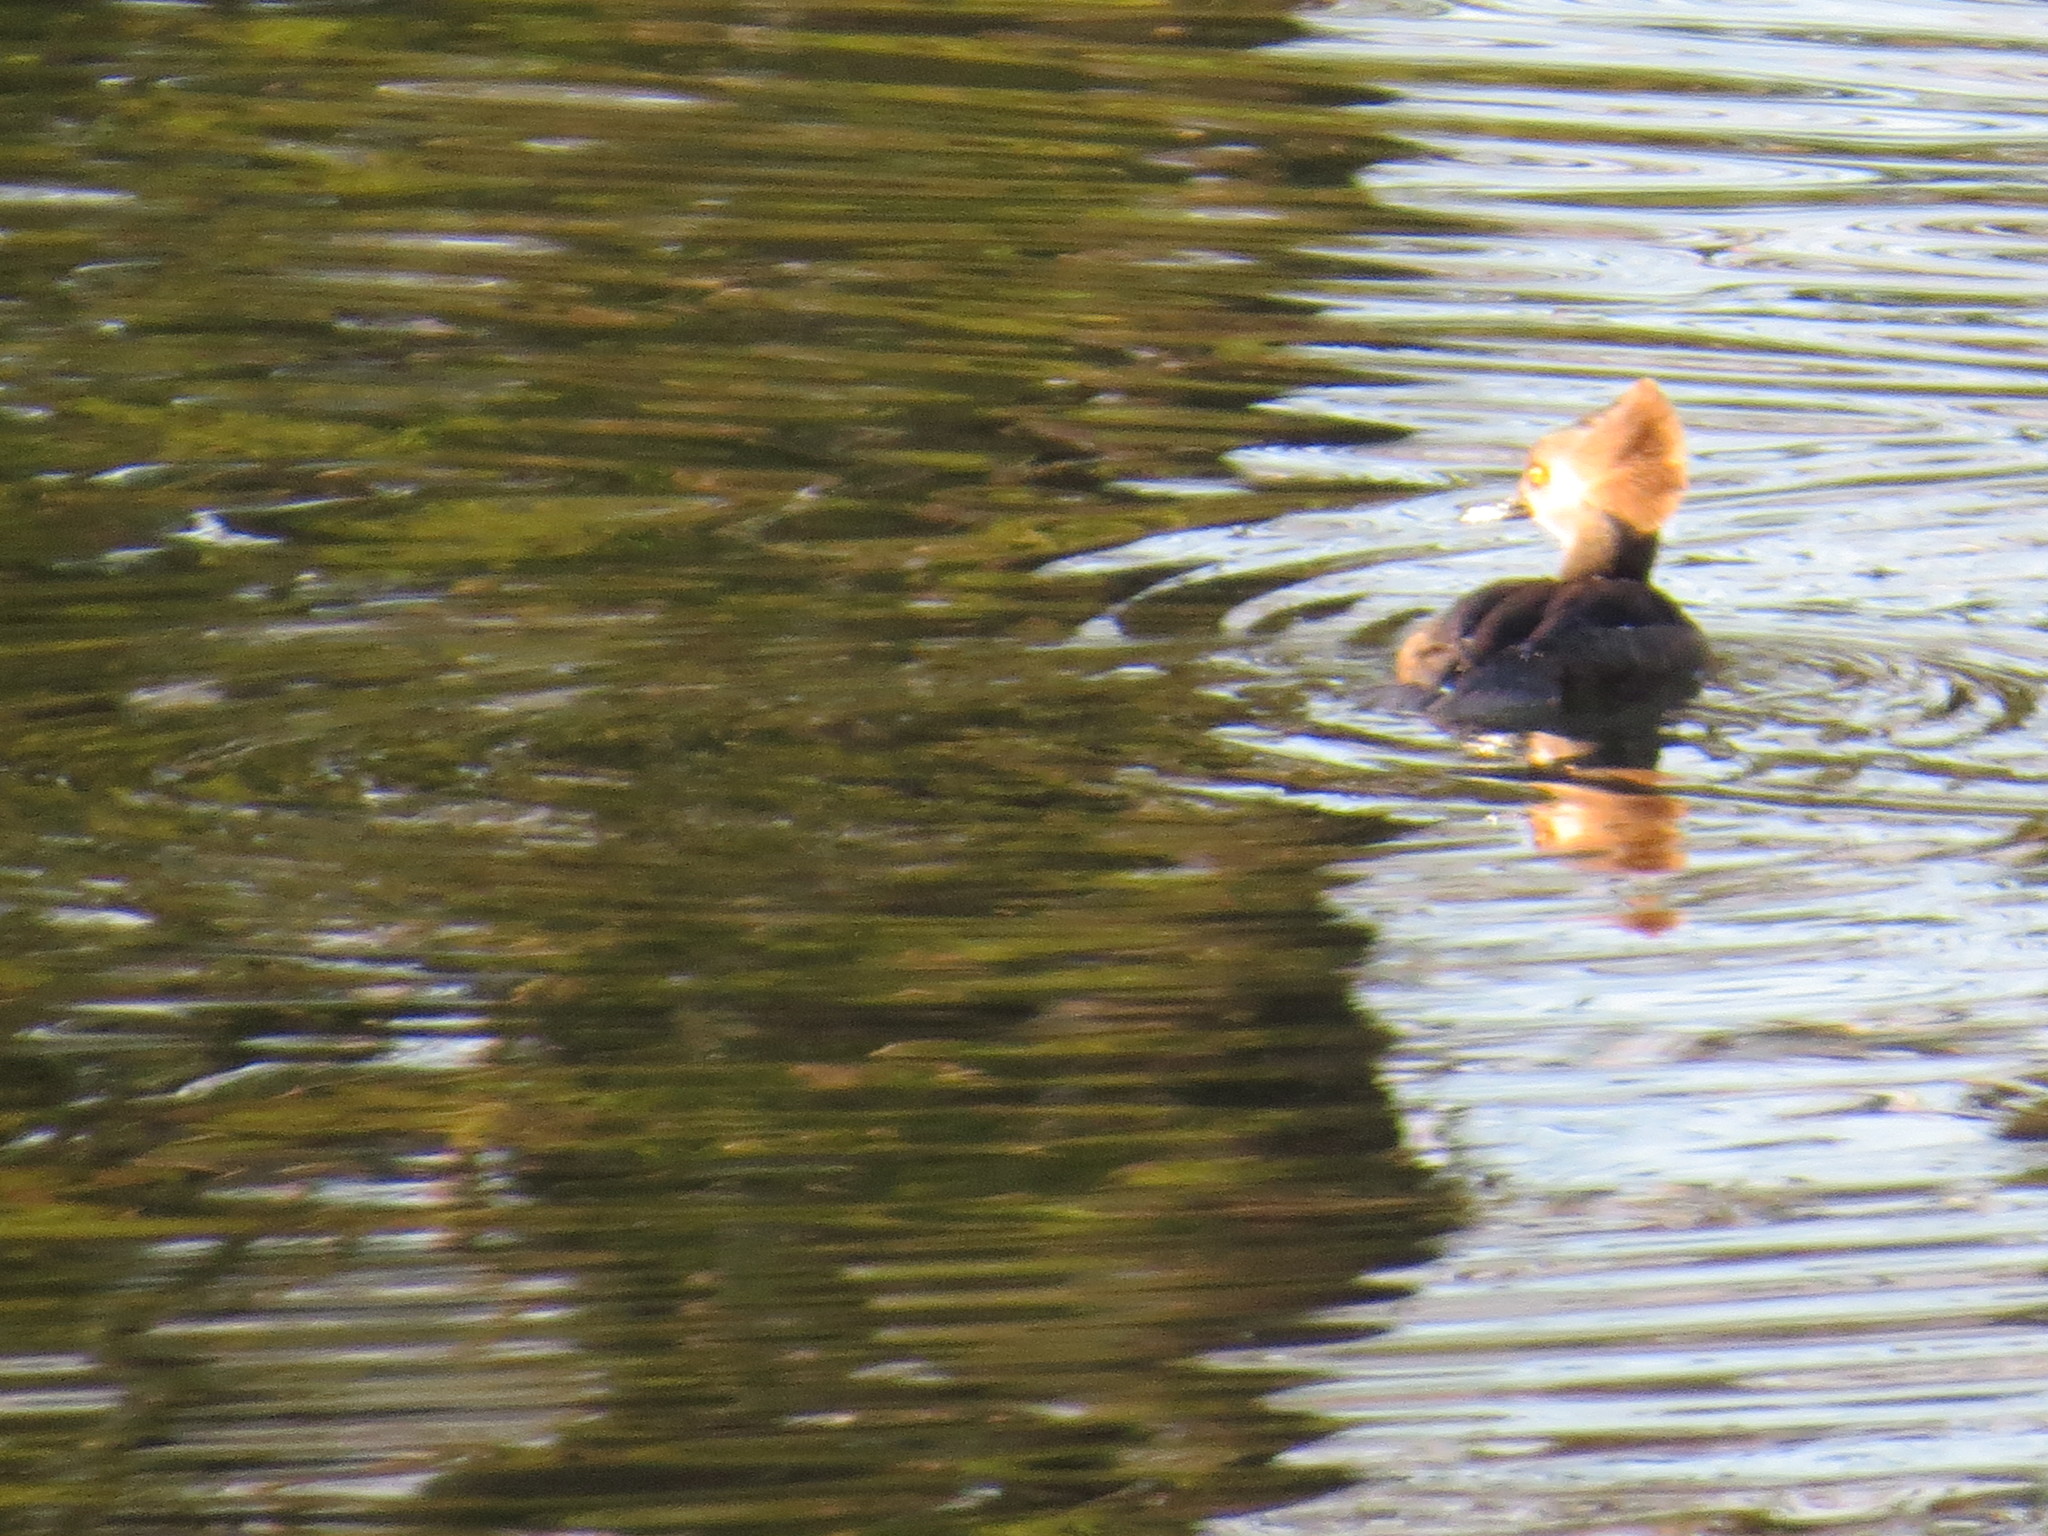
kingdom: Animalia
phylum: Chordata
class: Aves
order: Anseriformes
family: Anatidae
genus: Lophodytes
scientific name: Lophodytes cucullatus
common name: Hooded merganser
